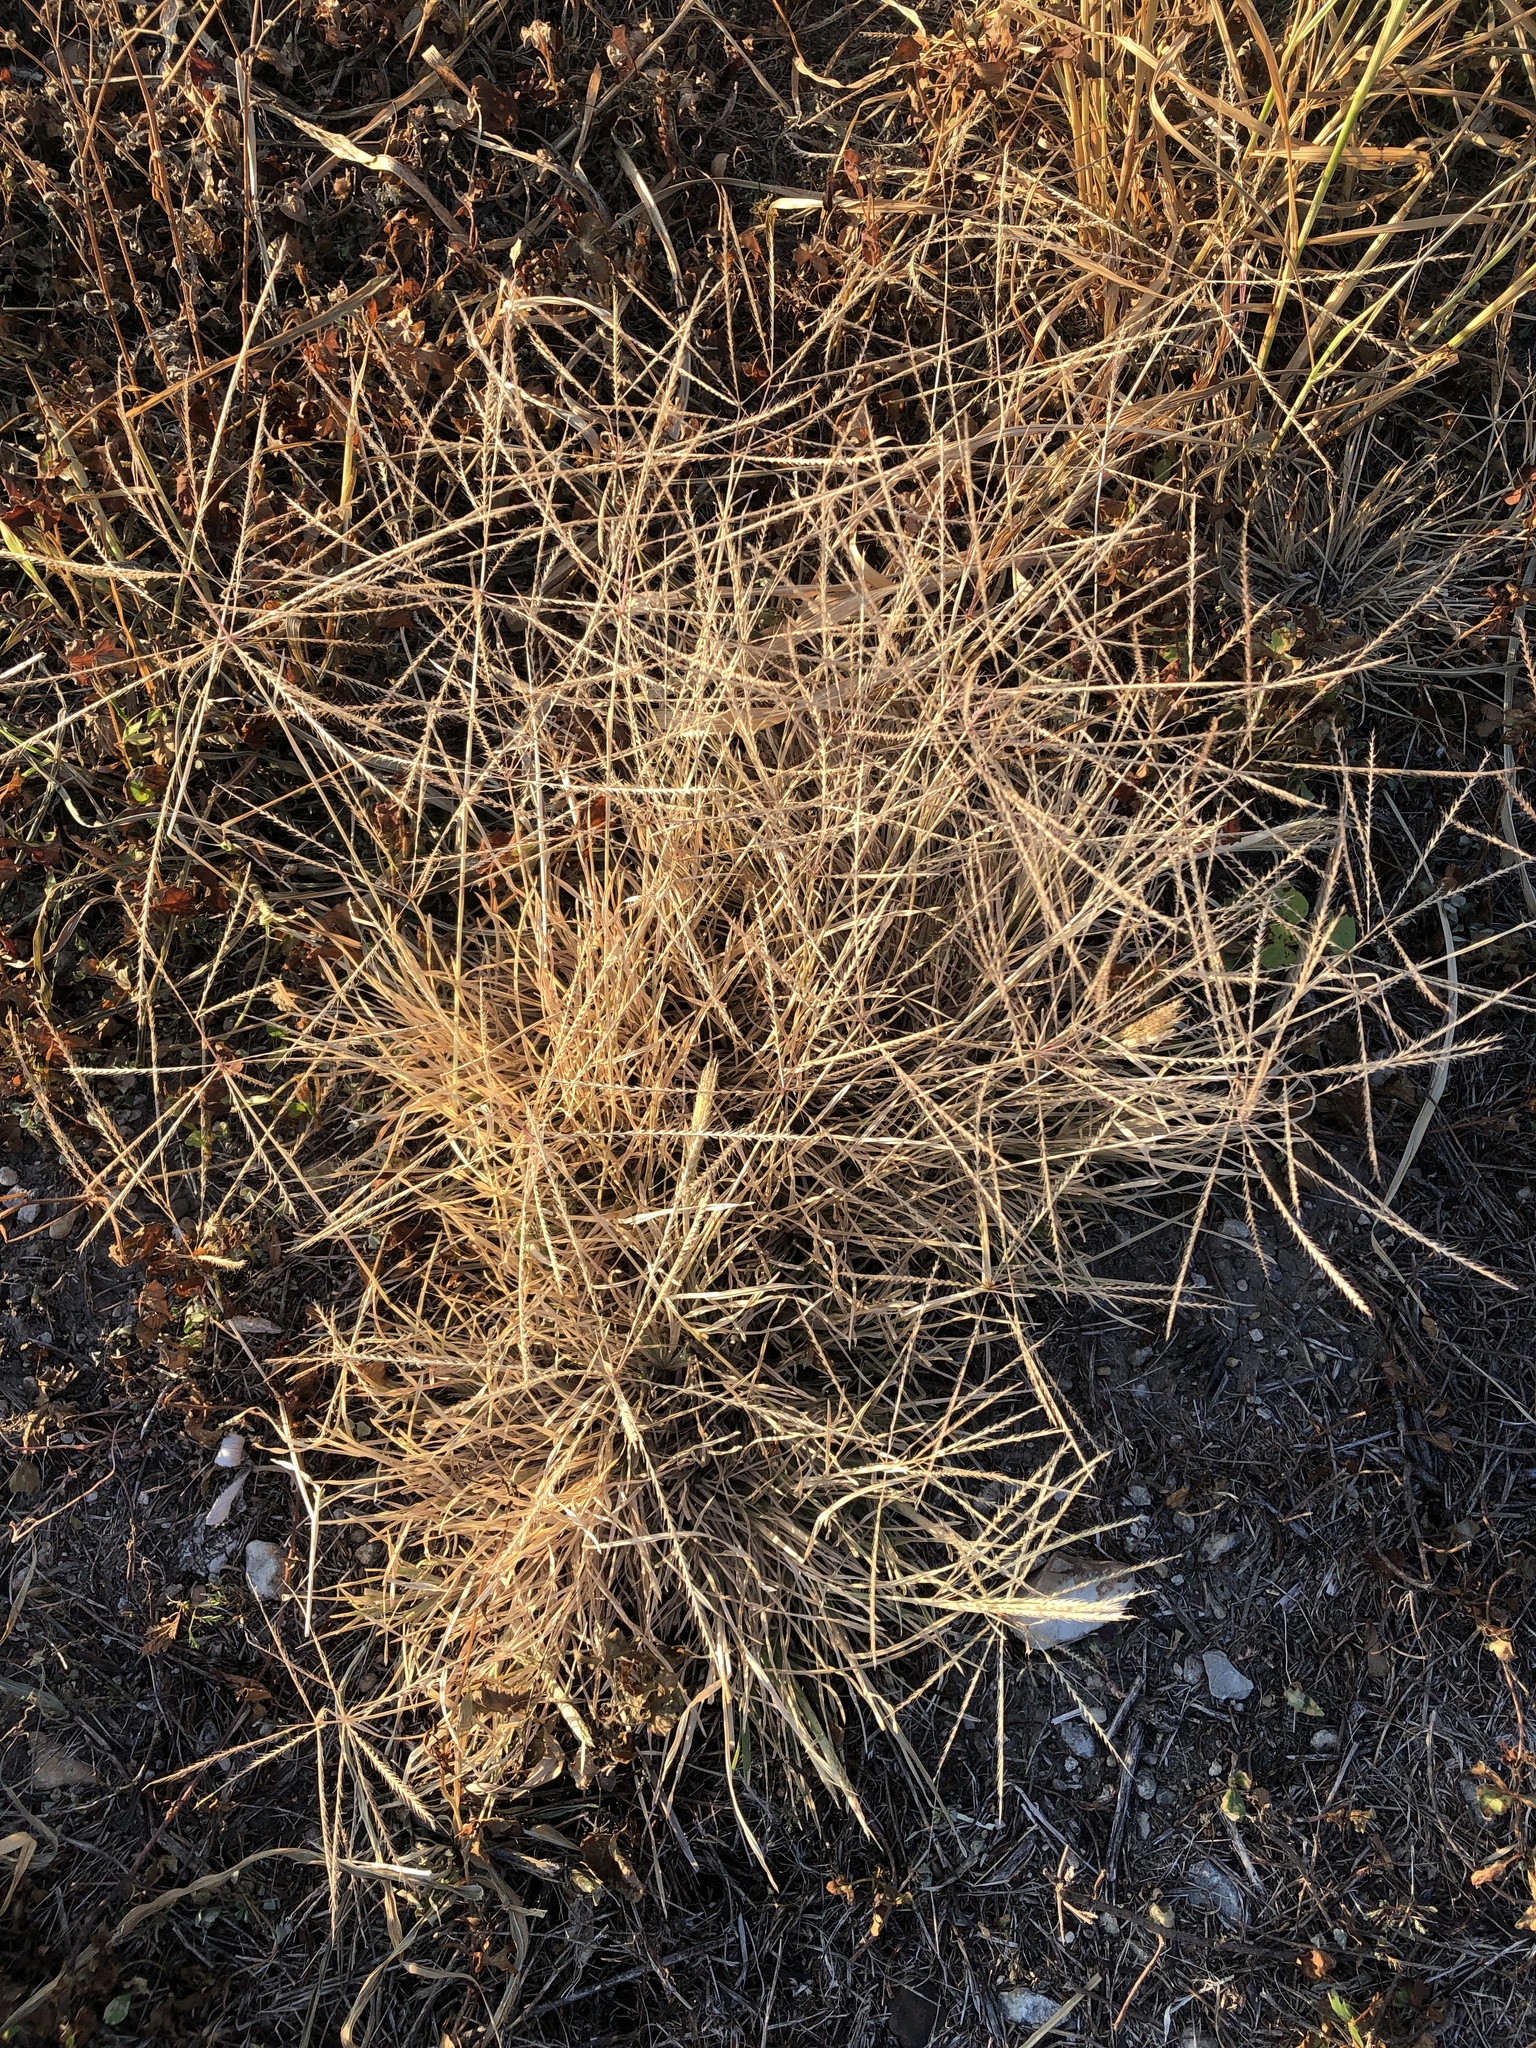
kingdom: Plantae
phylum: Tracheophyta
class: Liliopsida
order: Poales
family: Poaceae
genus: Chloris
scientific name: Chloris verticillata
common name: Tumble windmill grass
